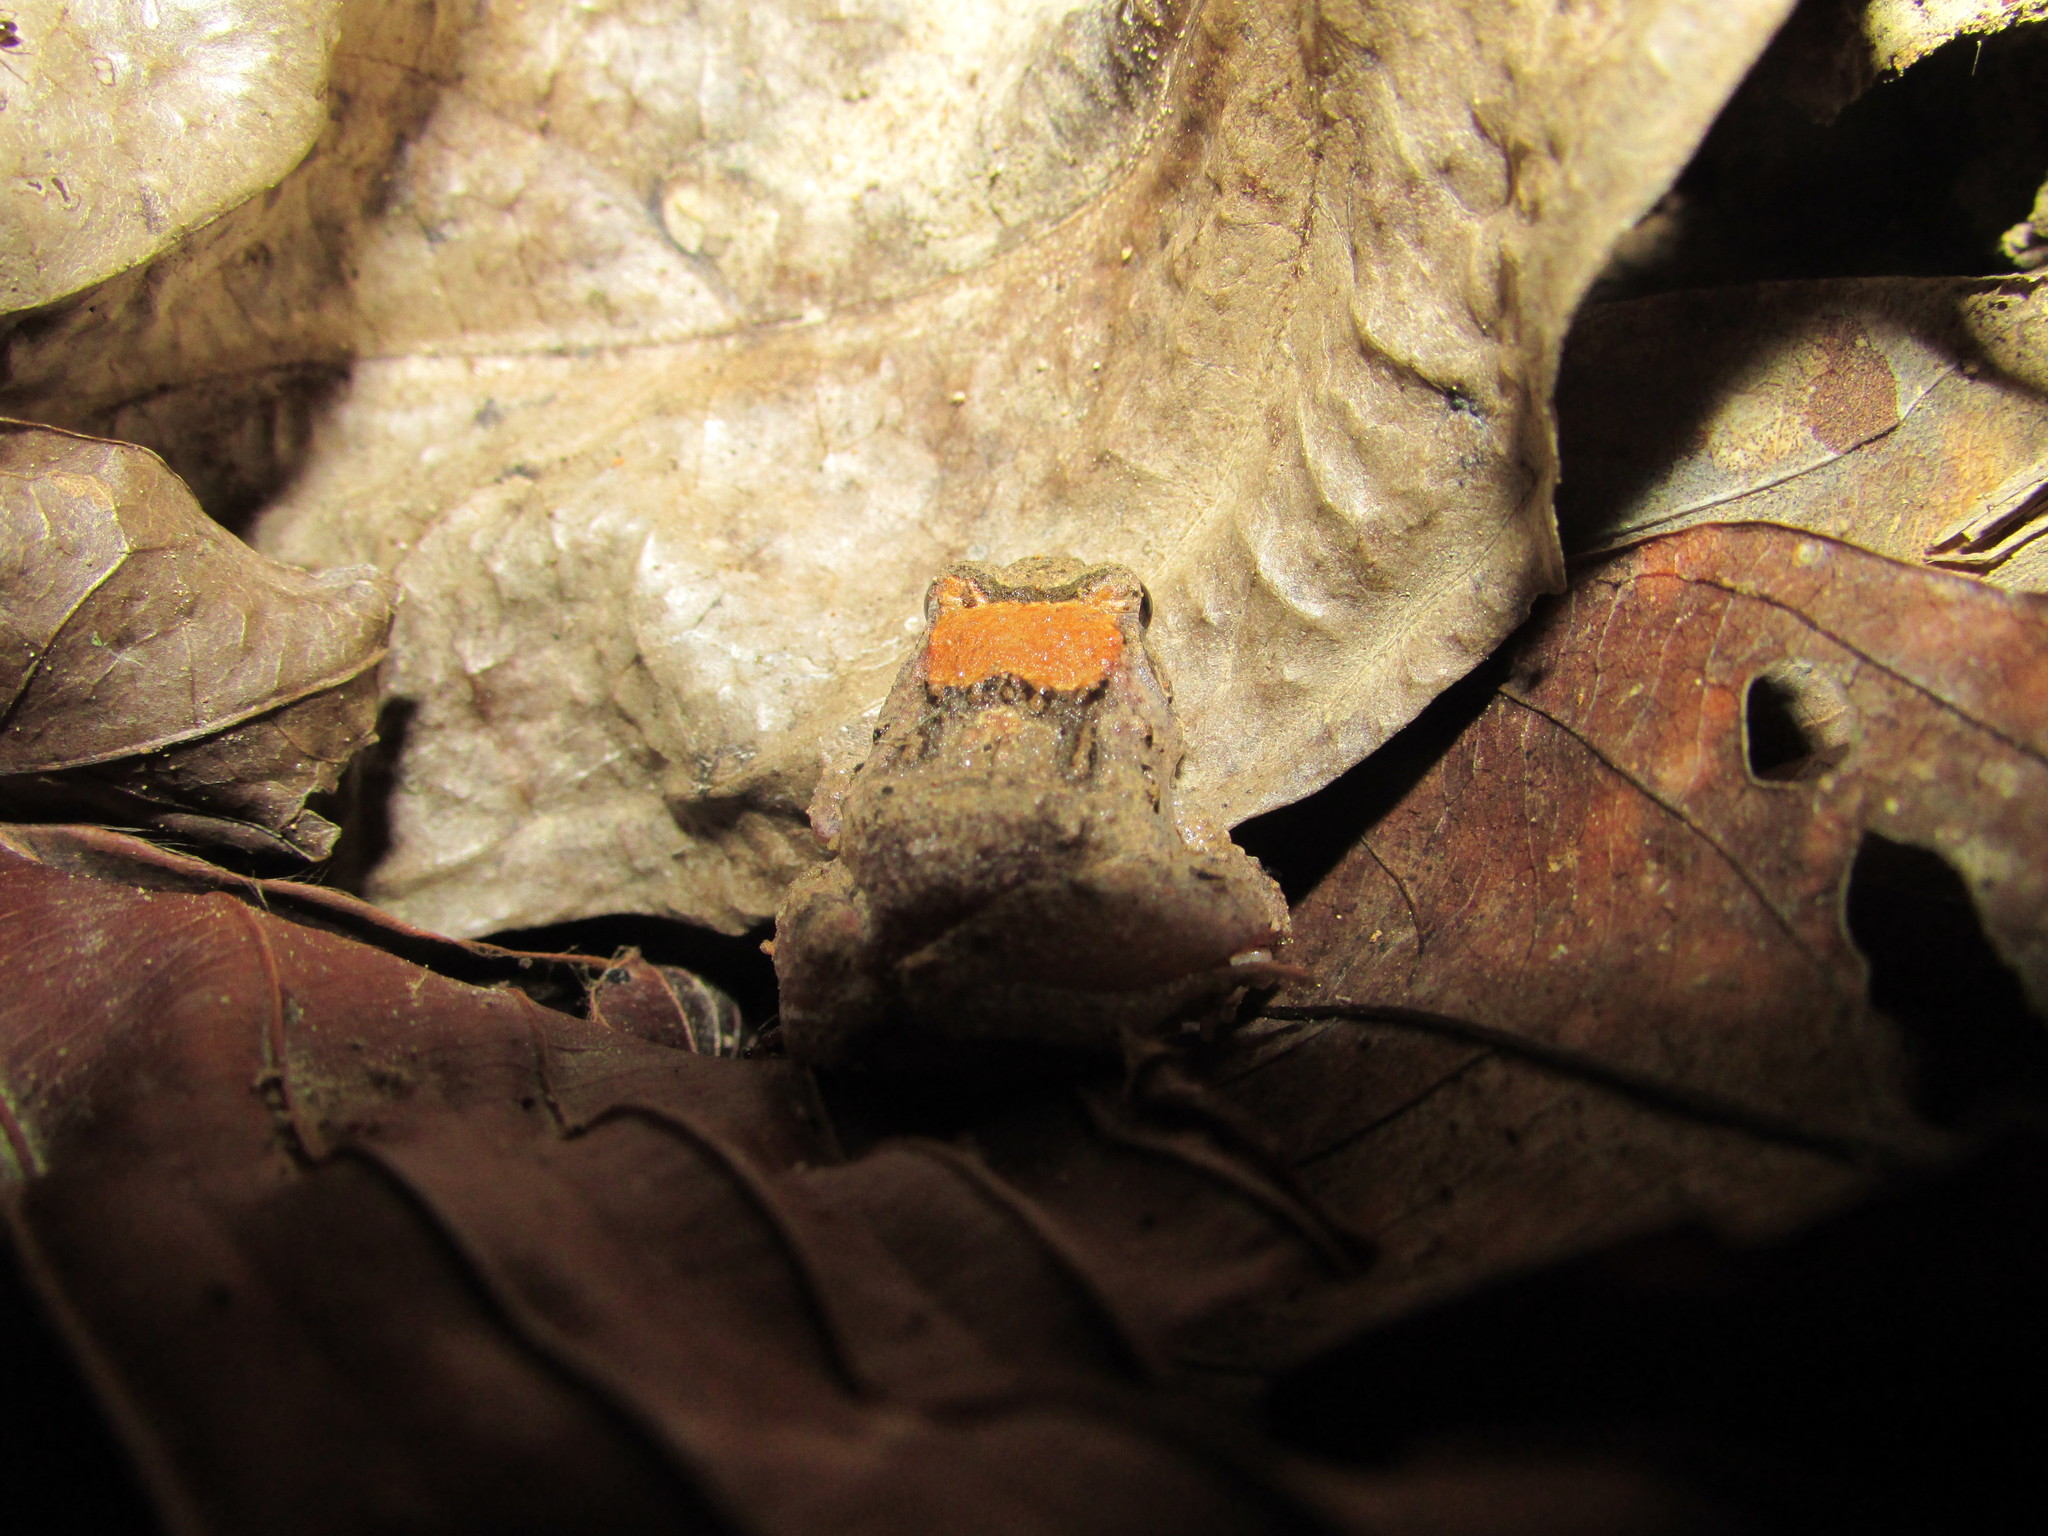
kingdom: Animalia
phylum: Chordata
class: Amphibia
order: Anura
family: Dicroglossidae
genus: Fejervarya
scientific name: Fejervarya moodiei
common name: Crab-eating frog
